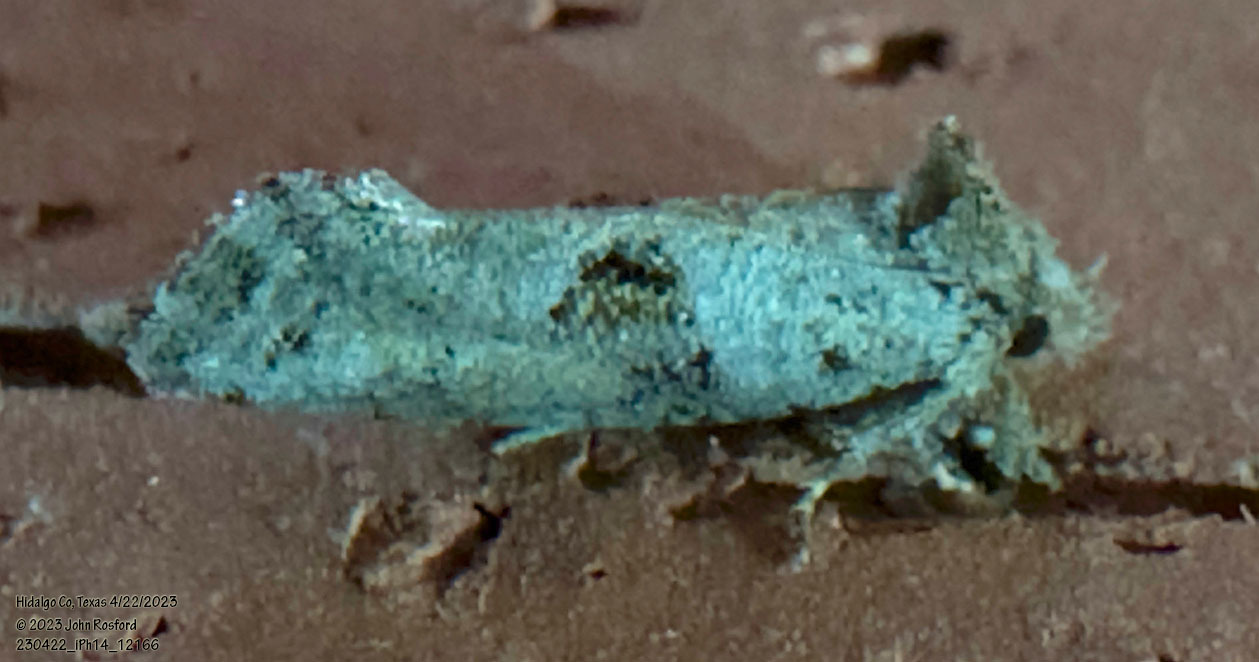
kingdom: Animalia
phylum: Arthropoda
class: Insecta
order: Lepidoptera
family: Tineidae
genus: Acrolophus
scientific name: Acrolophus piger
